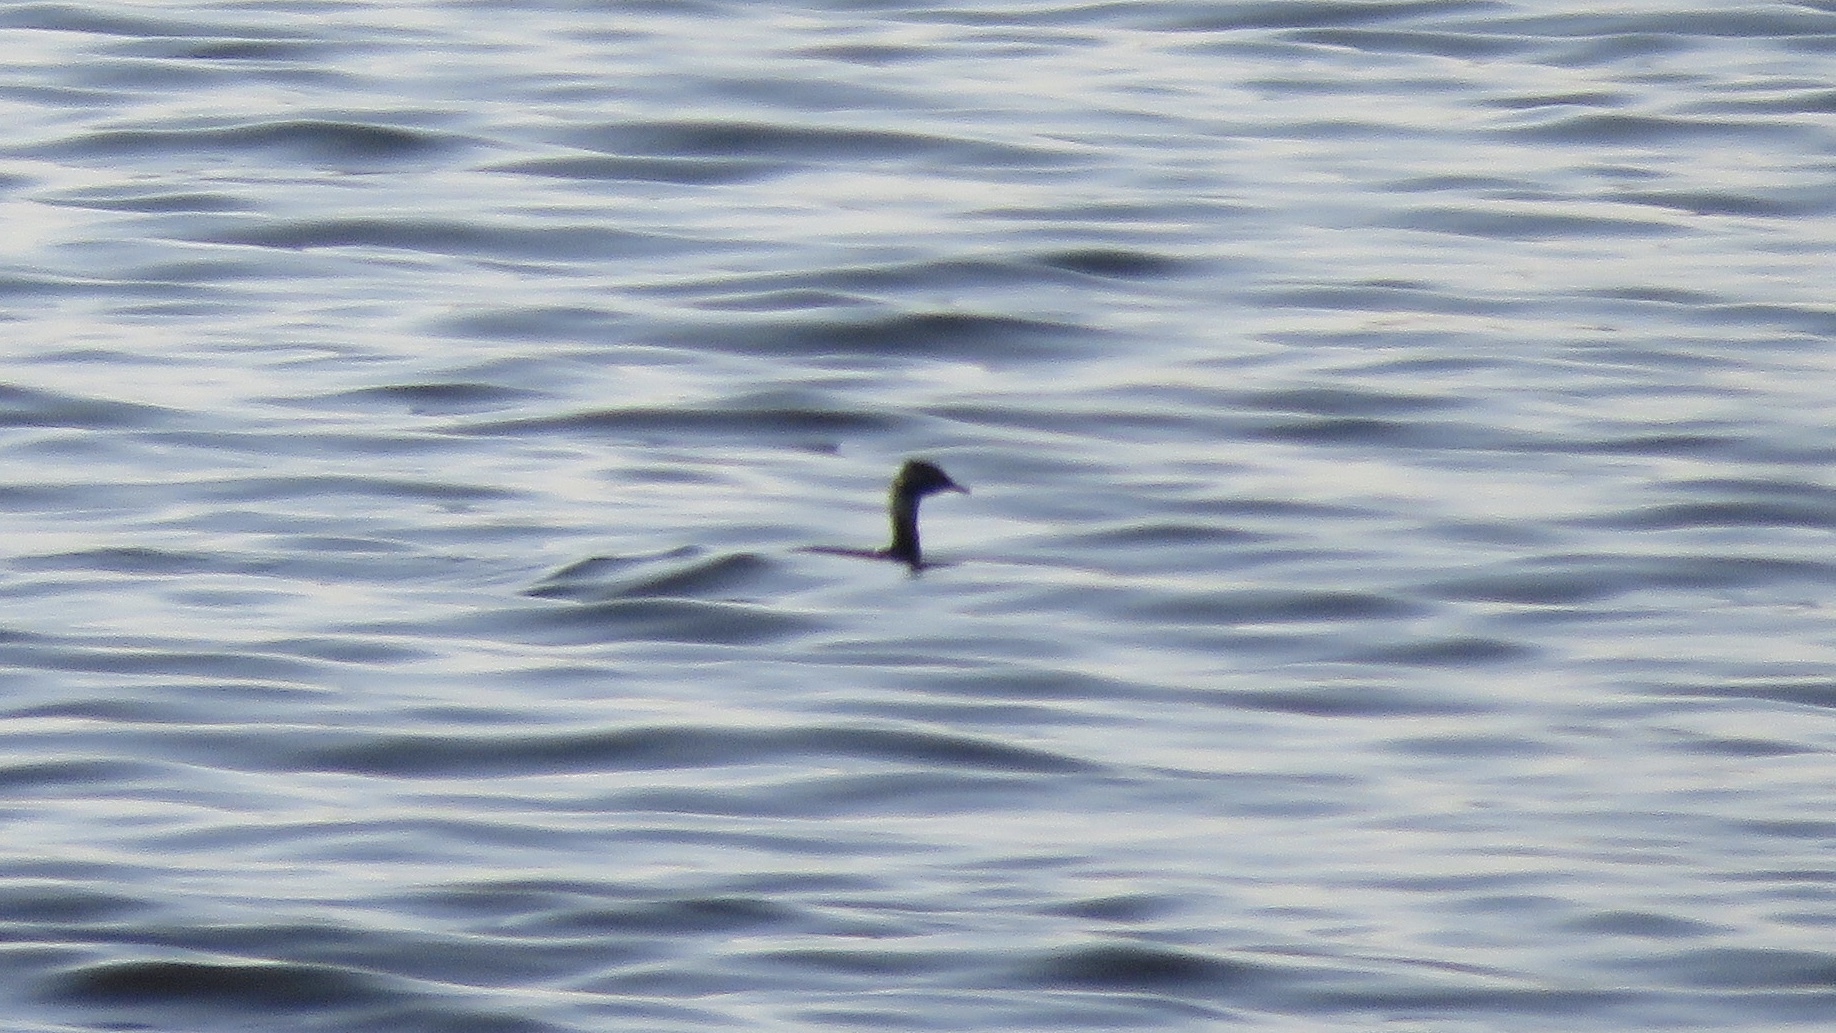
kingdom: Animalia
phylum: Chordata
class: Aves
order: Podicipediformes
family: Podicipedidae
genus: Podiceps
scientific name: Podiceps auritus
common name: Horned grebe
